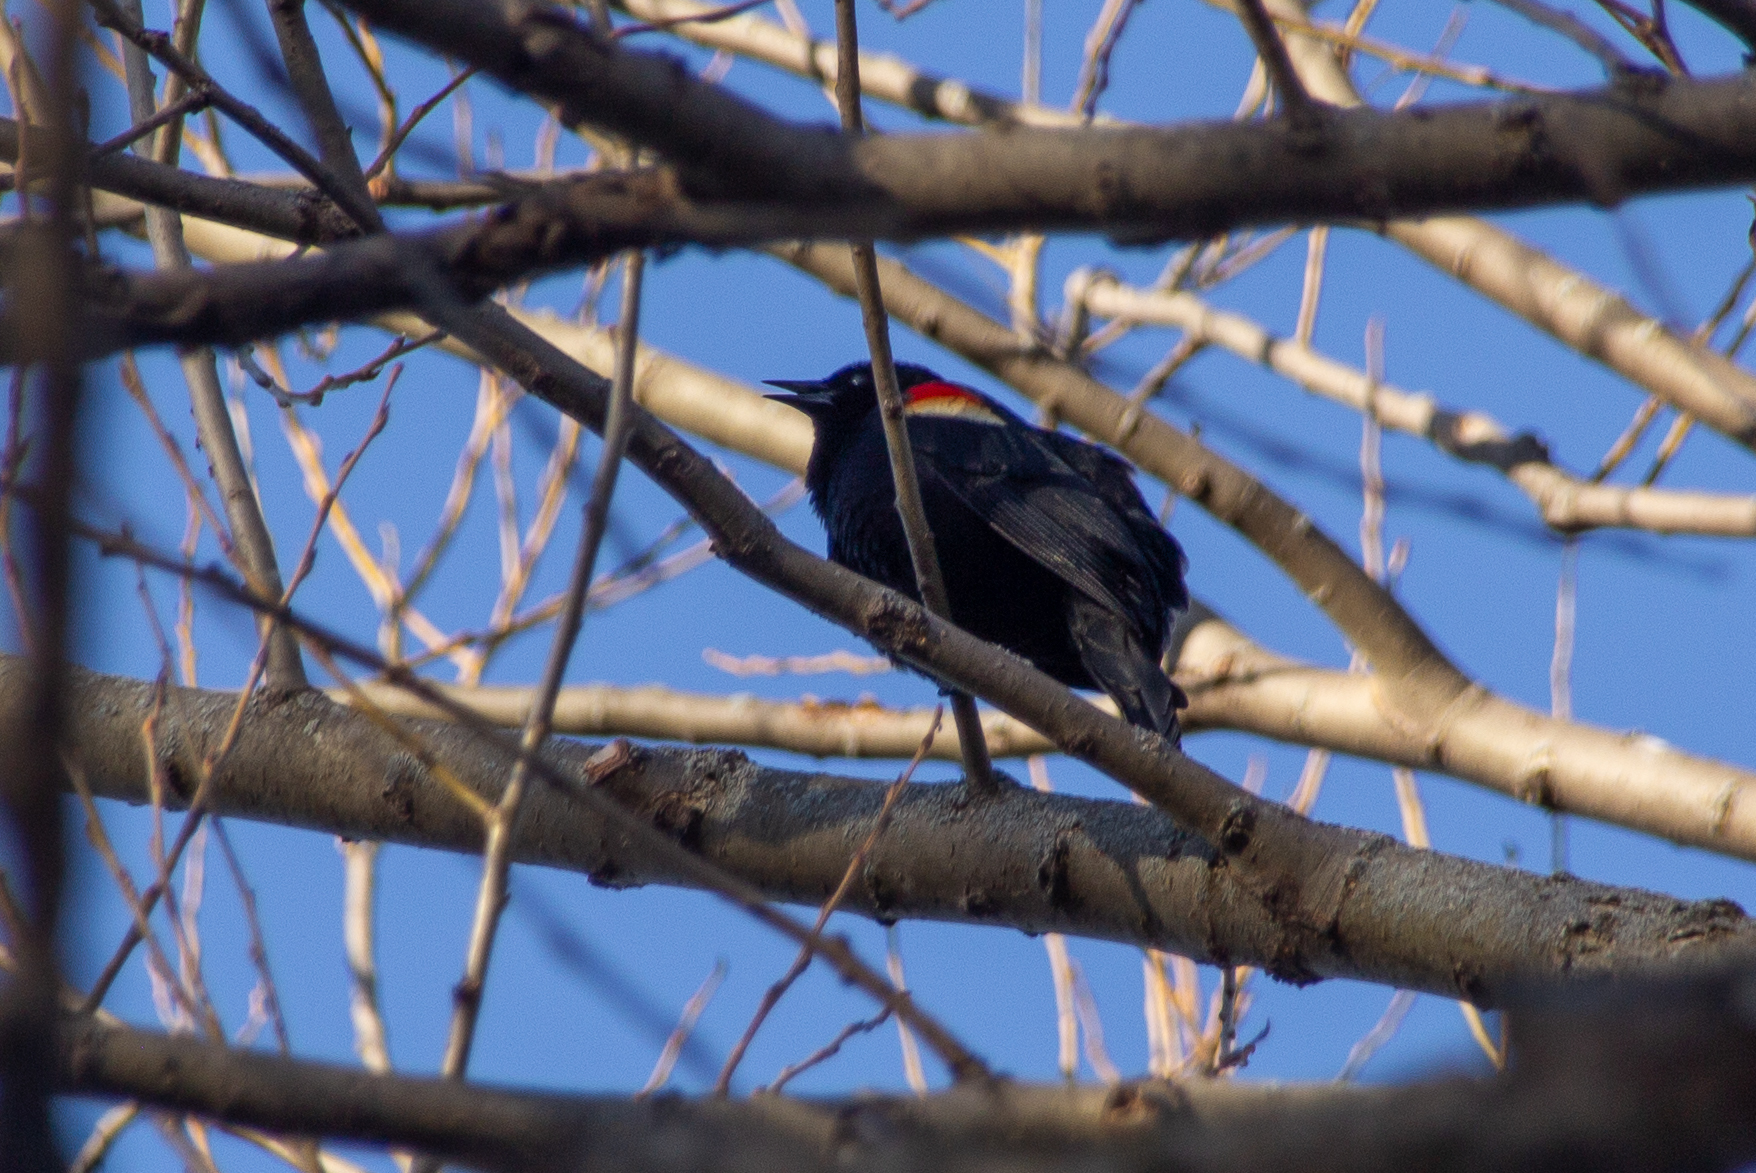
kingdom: Animalia
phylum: Chordata
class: Aves
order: Passeriformes
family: Icteridae
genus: Agelaius
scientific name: Agelaius phoeniceus
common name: Red-winged blackbird
